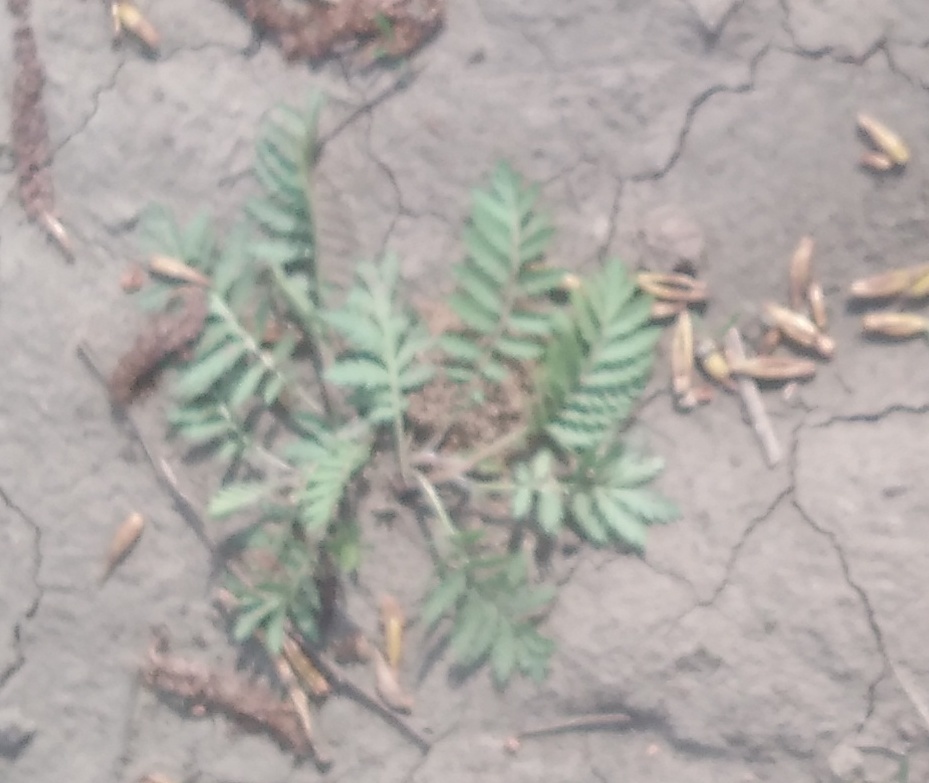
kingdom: Plantae
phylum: Tracheophyta
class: Magnoliopsida
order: Asterales
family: Asteraceae
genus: Tanacetum
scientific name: Tanacetum vulgare
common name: Common tansy
